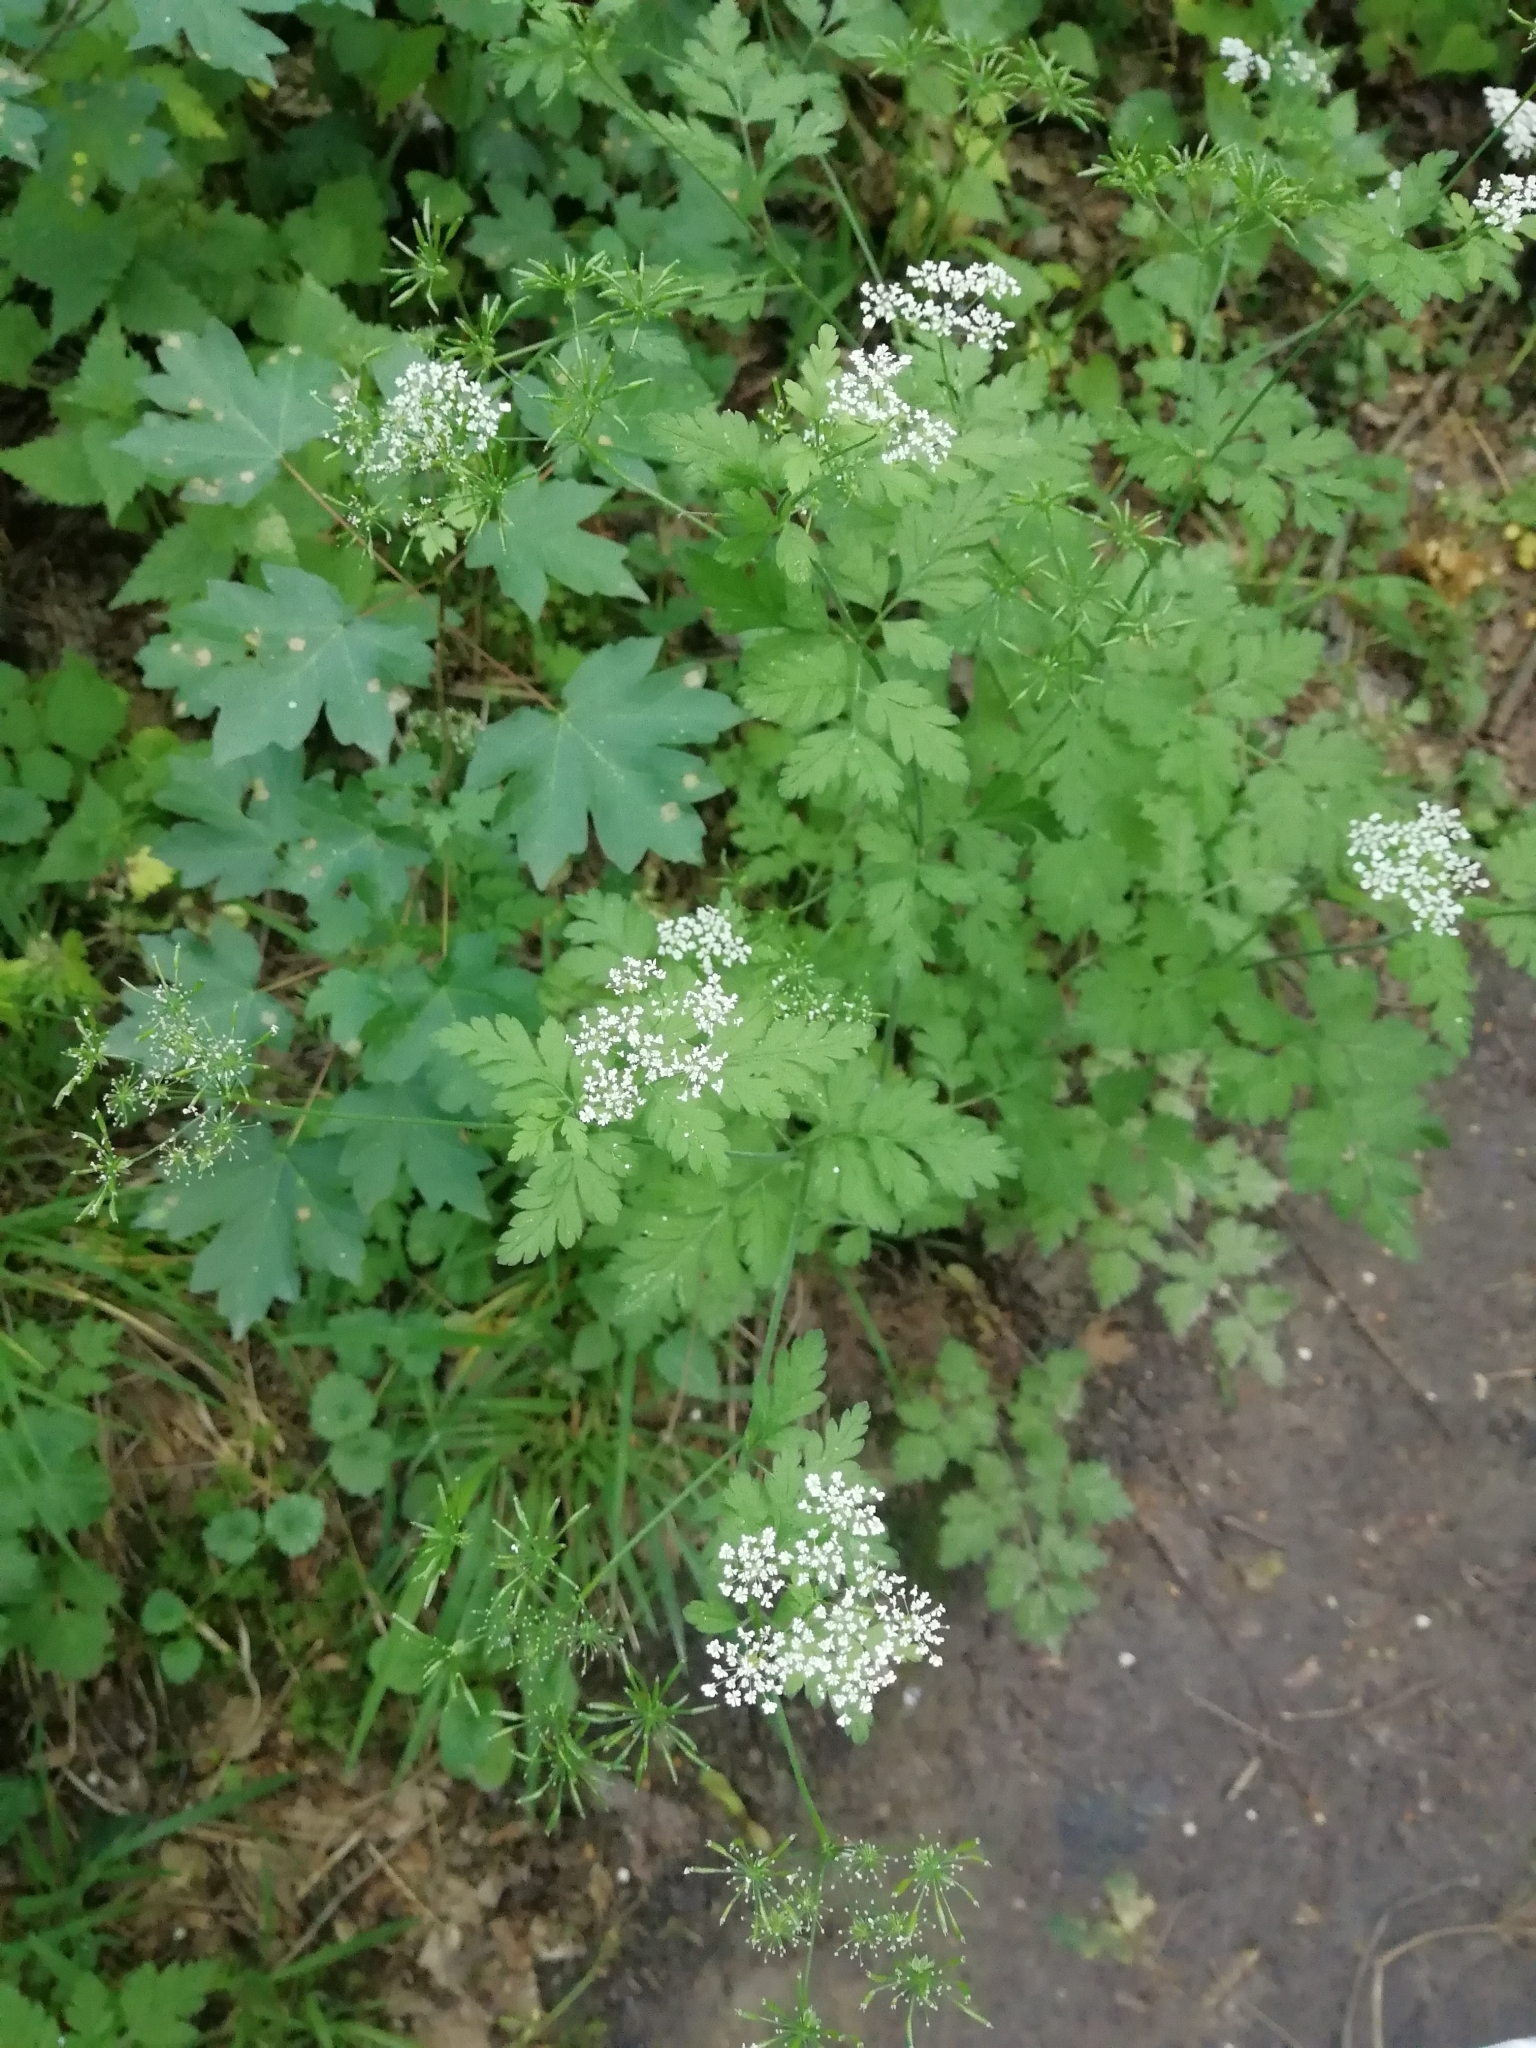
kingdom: Plantae
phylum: Tracheophyta
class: Magnoliopsida
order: Apiales
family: Apiaceae
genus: Chaerophyllum
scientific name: Chaerophyllum temulum
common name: Rough chervil
